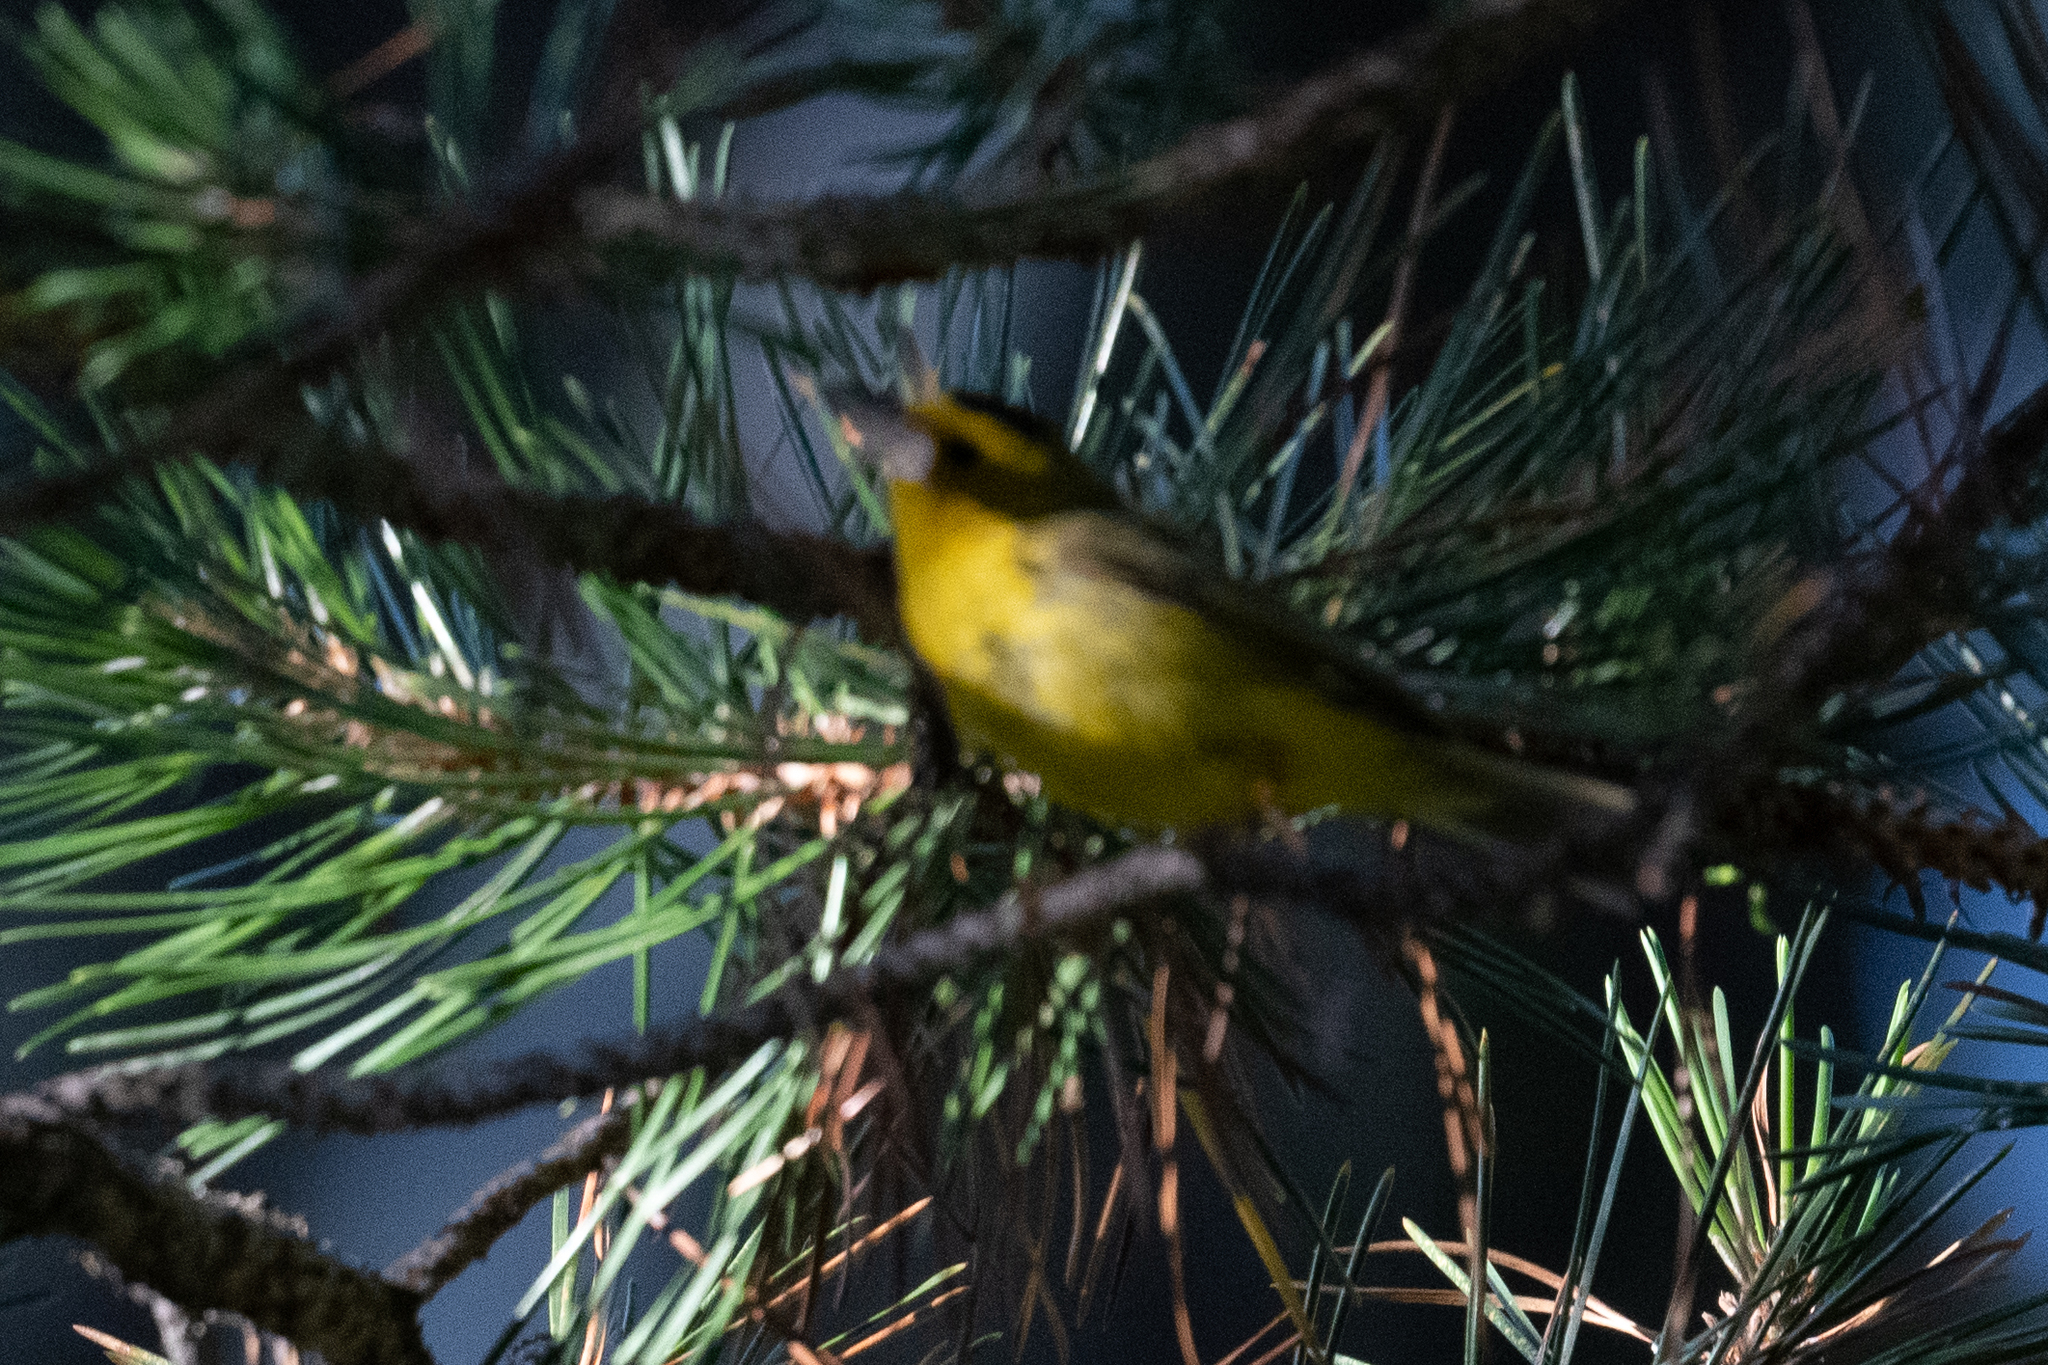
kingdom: Animalia
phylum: Chordata
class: Aves
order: Passeriformes
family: Parulidae
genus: Cardellina
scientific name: Cardellina pusilla
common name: Wilson's warbler
